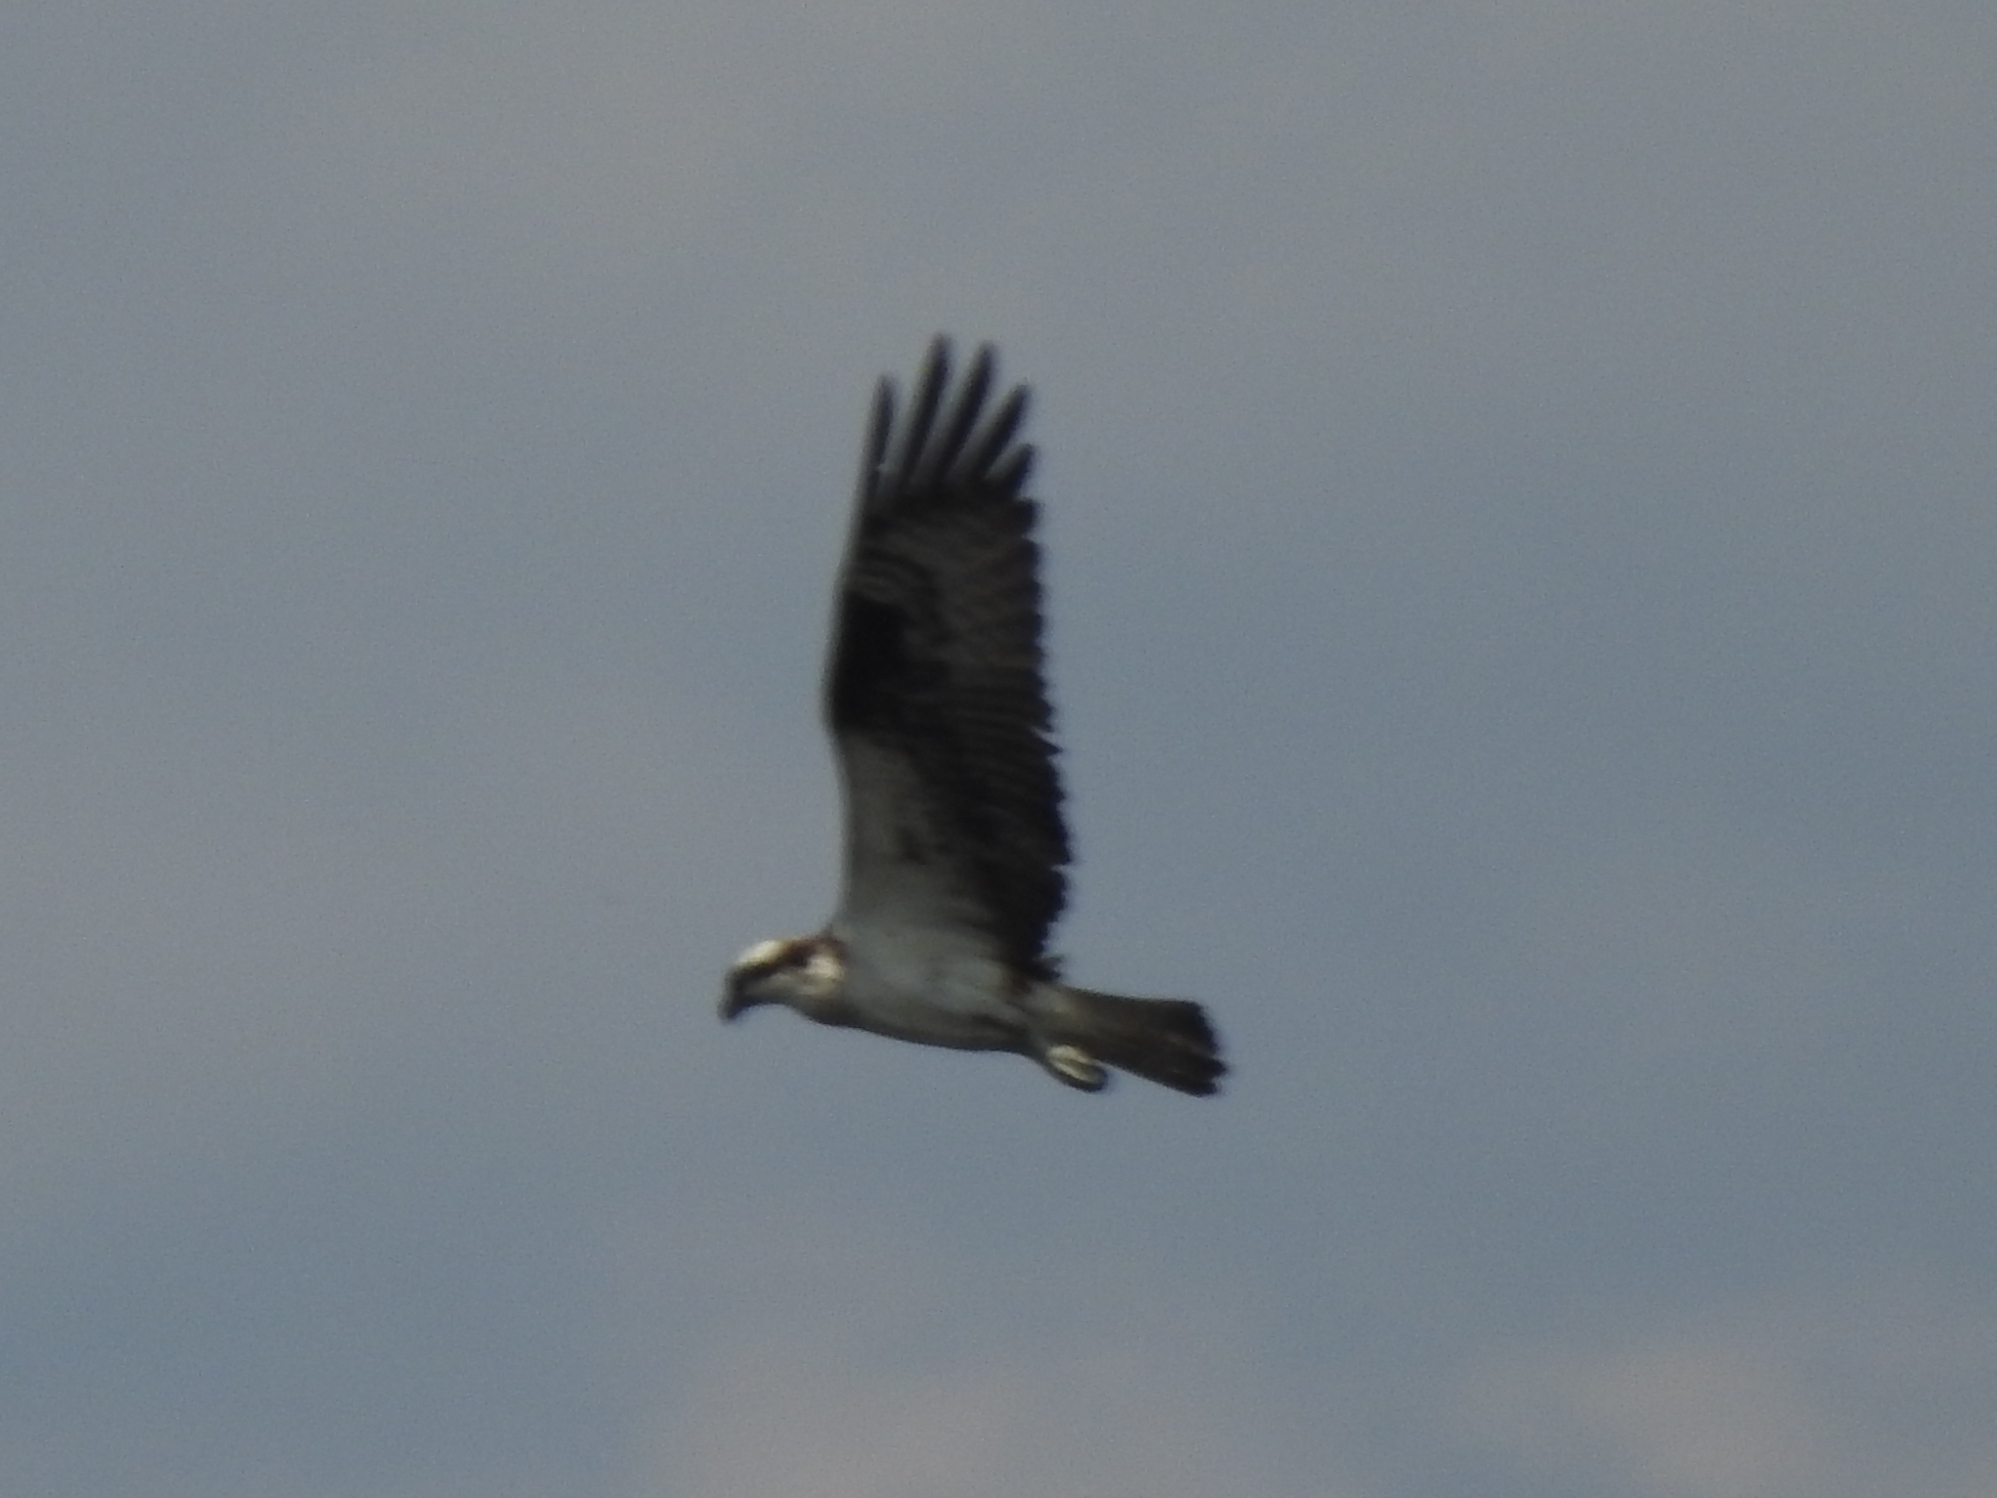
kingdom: Animalia
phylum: Chordata
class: Aves
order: Accipitriformes
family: Pandionidae
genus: Pandion
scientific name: Pandion haliaetus
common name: Osprey
